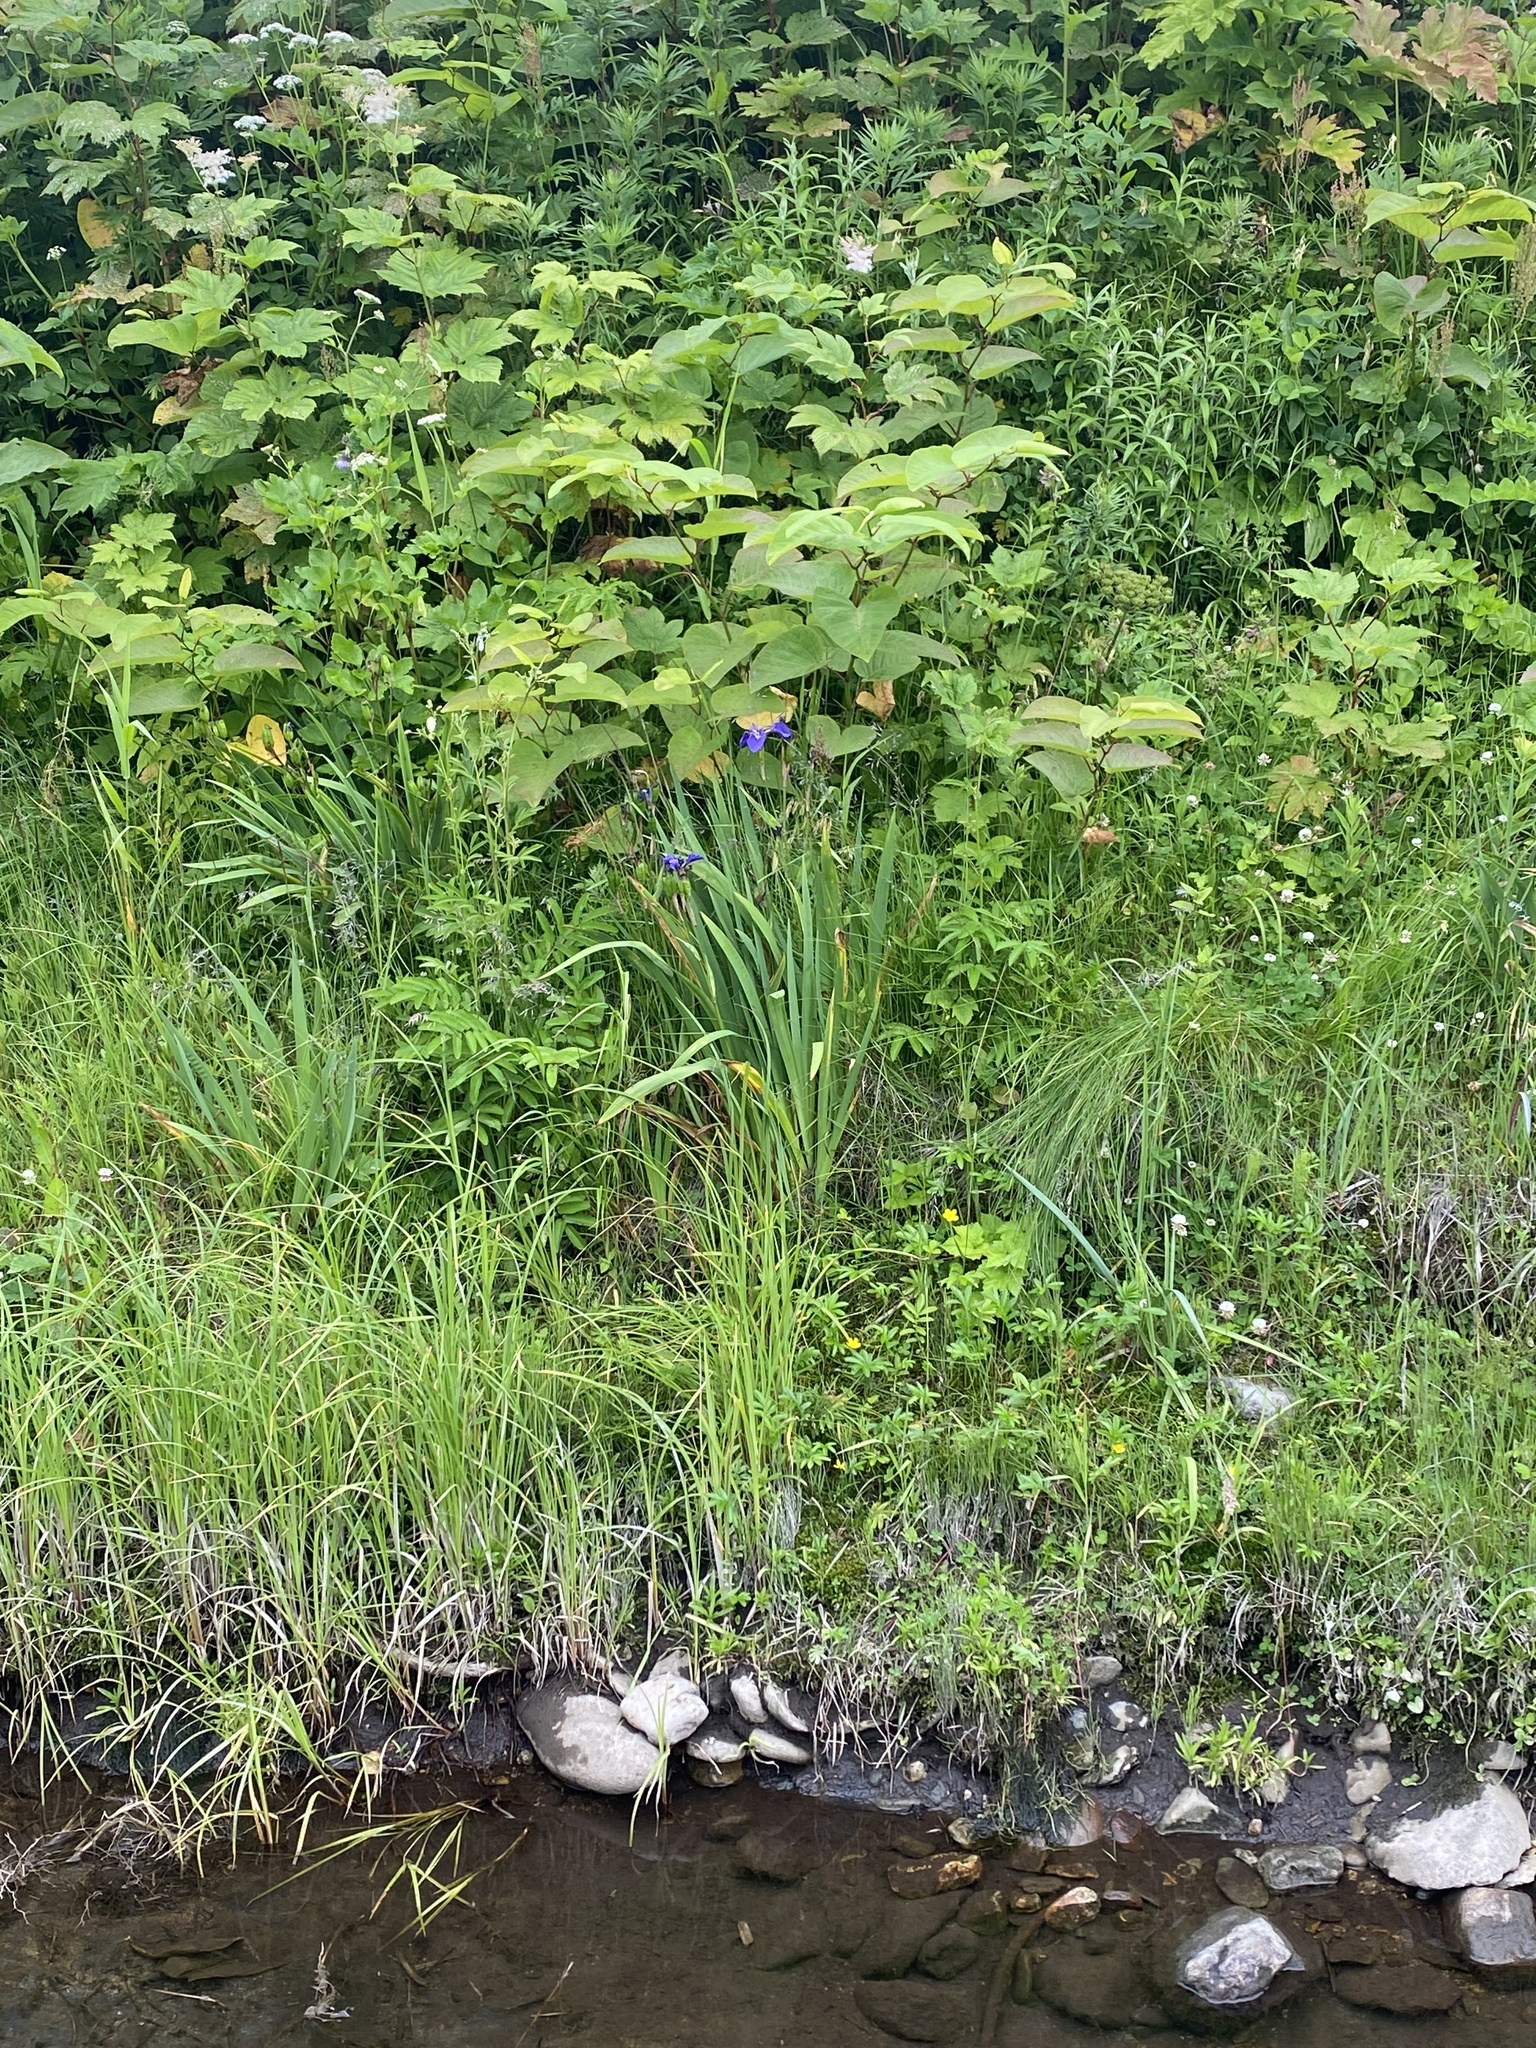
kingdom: Plantae
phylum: Tracheophyta
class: Liliopsida
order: Asparagales
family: Iridaceae
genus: Iris
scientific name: Iris setosa
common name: Arctic blue flag
